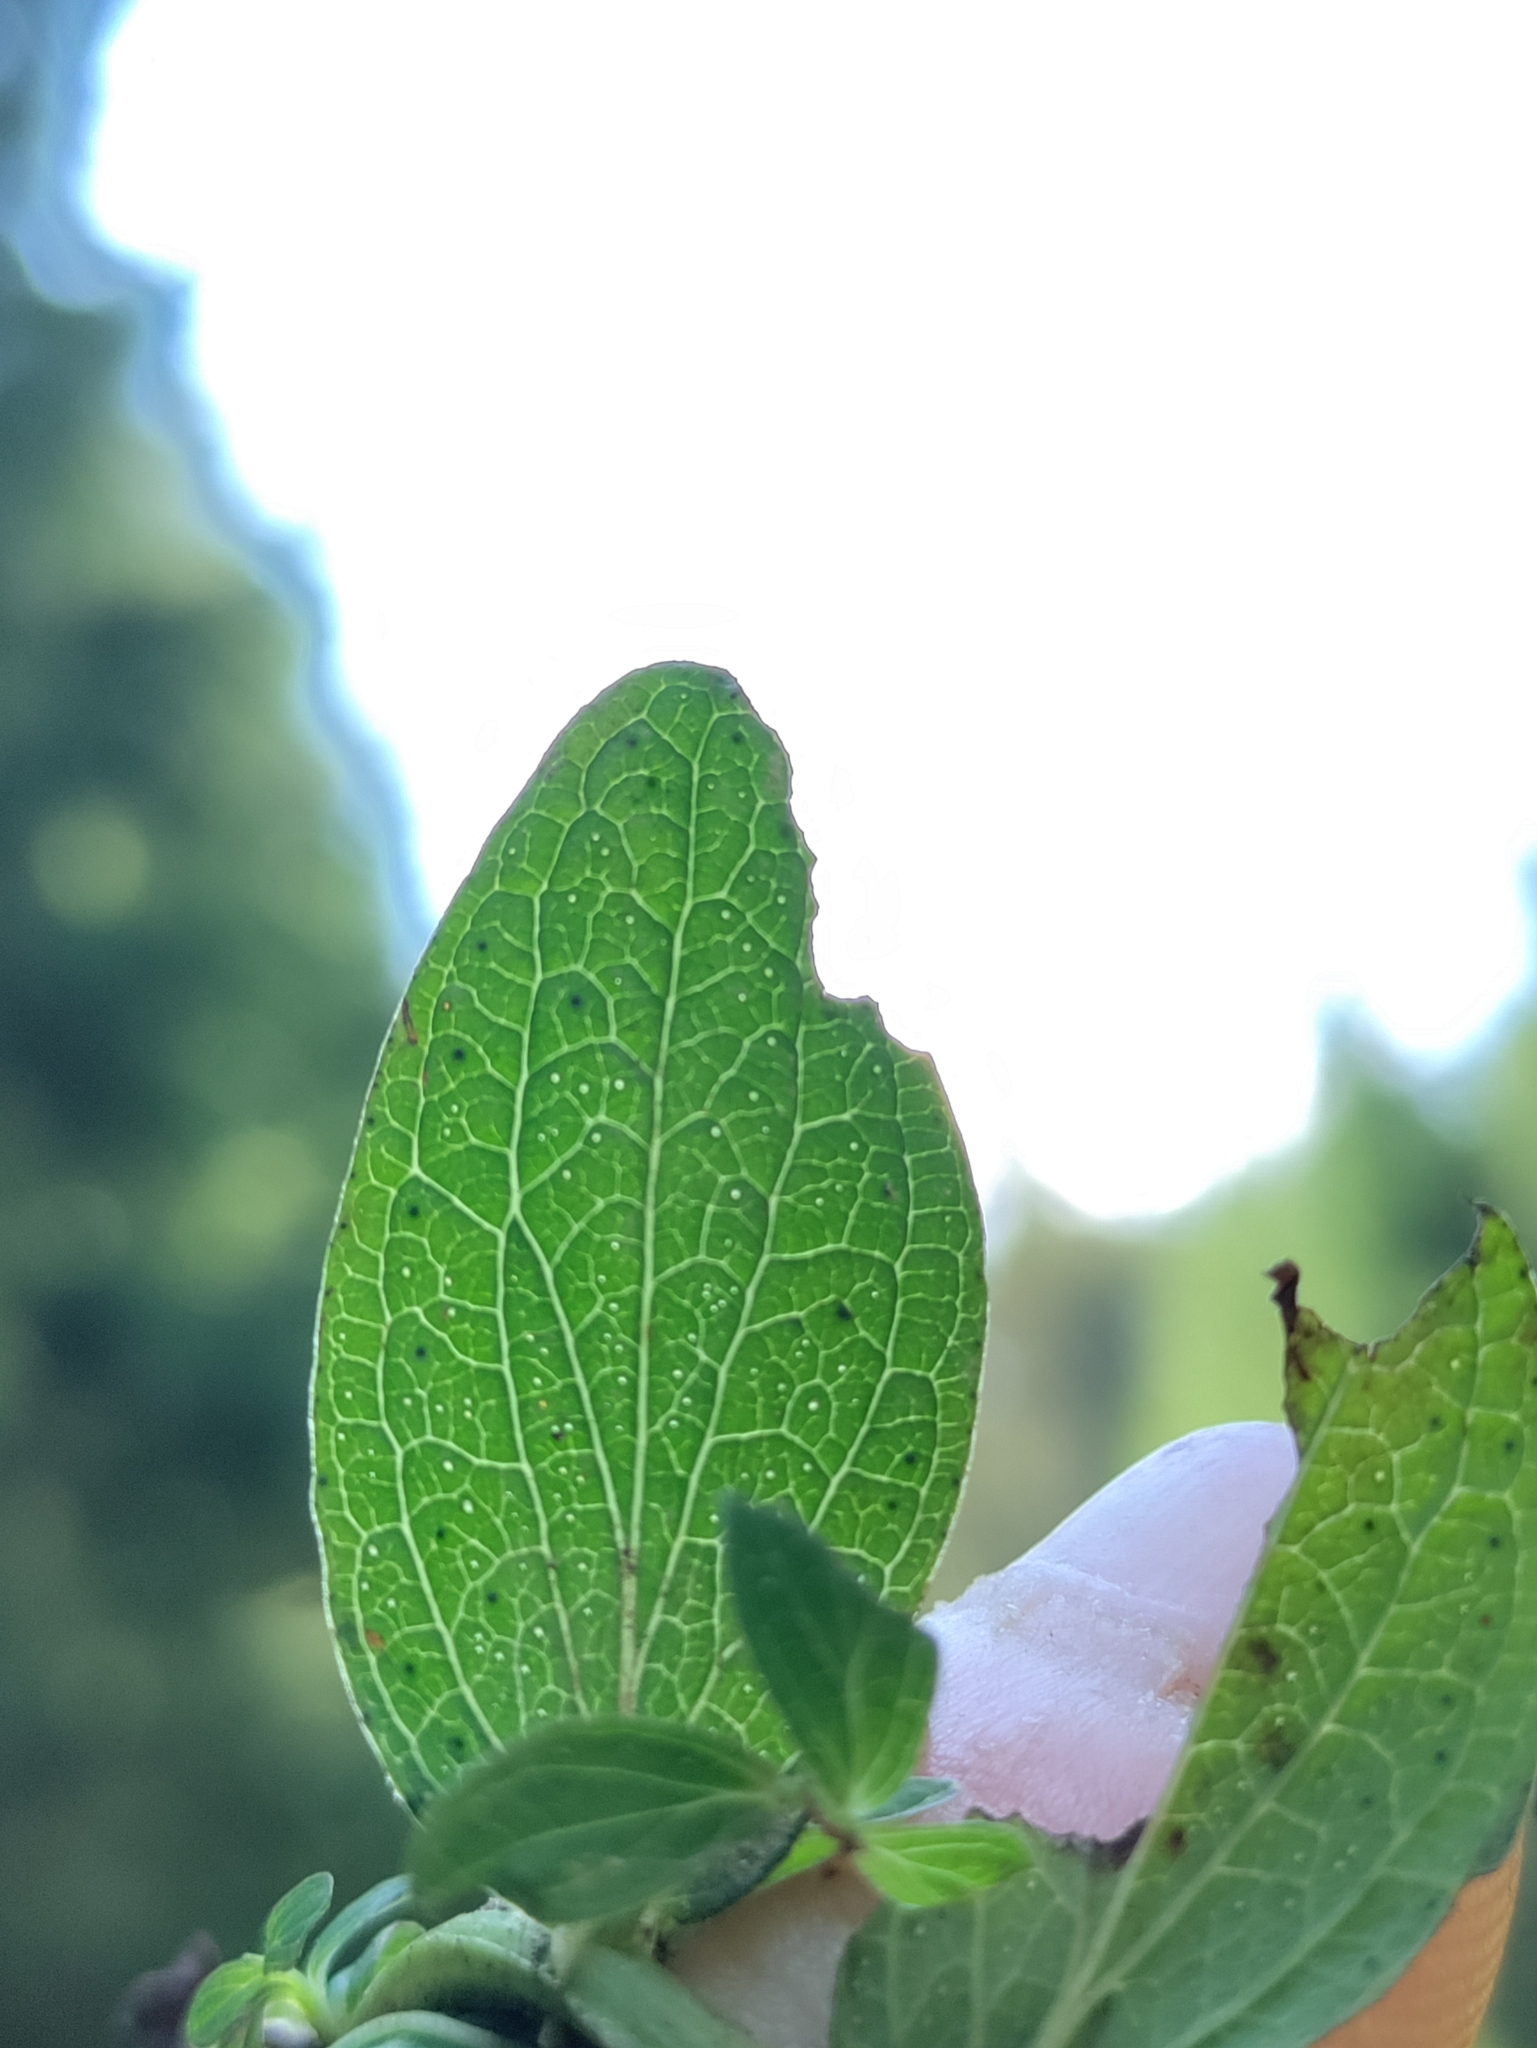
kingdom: Plantae
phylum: Tracheophyta
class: Magnoliopsida
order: Malpighiales
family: Hypericaceae
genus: Hypericum
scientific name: Hypericum maculatum
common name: Imperforate st. john's-wort
